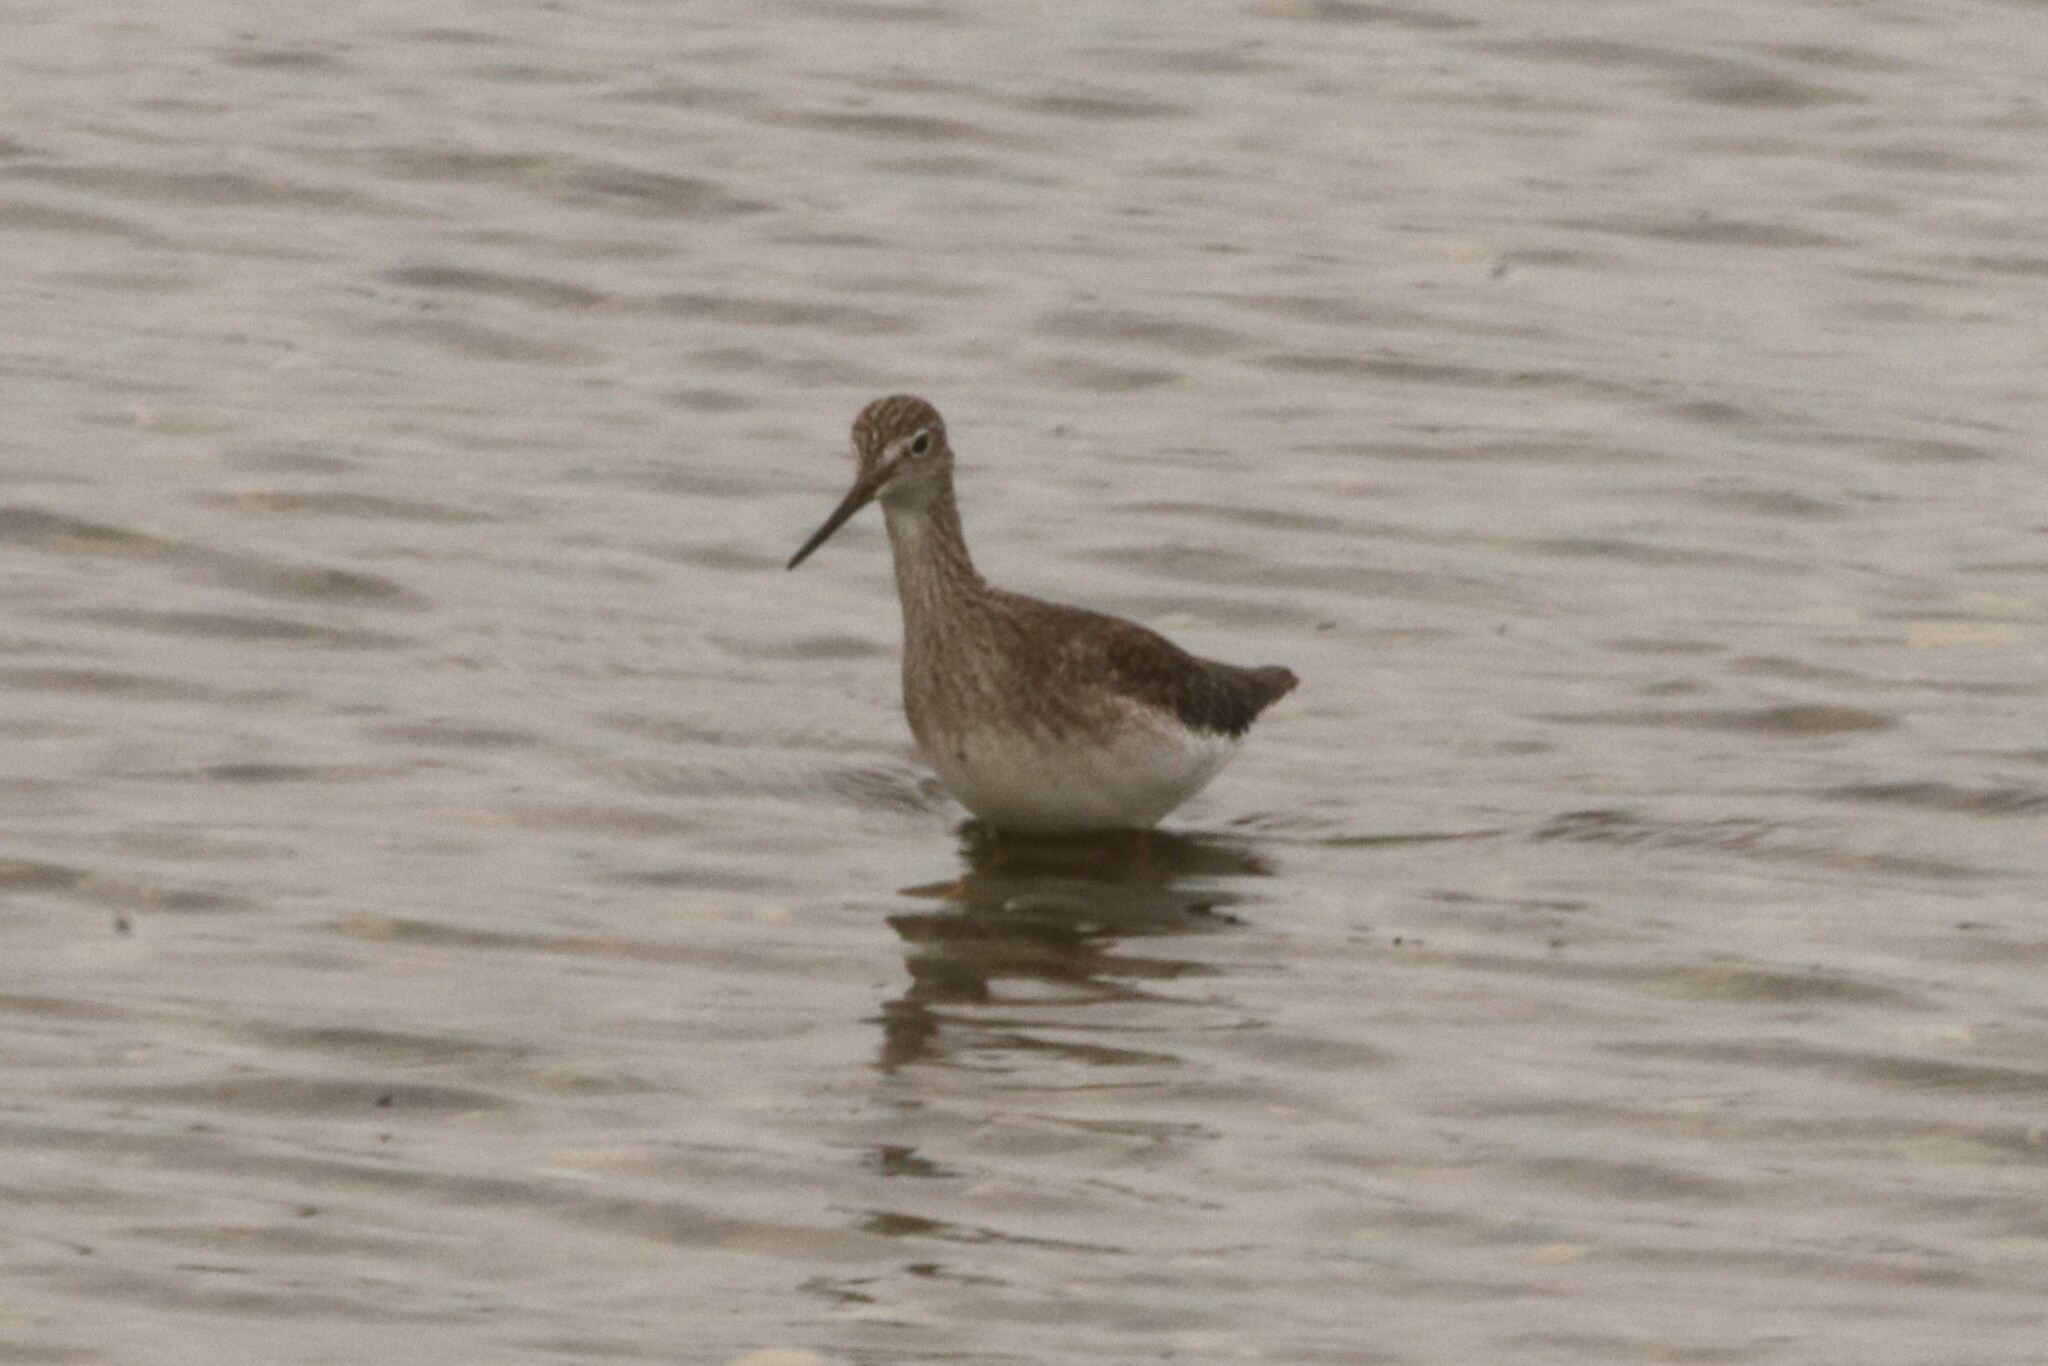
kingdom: Animalia
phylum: Chordata
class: Aves
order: Charadriiformes
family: Scolopacidae
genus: Tringa
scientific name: Tringa melanoleuca
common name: Greater yellowlegs
